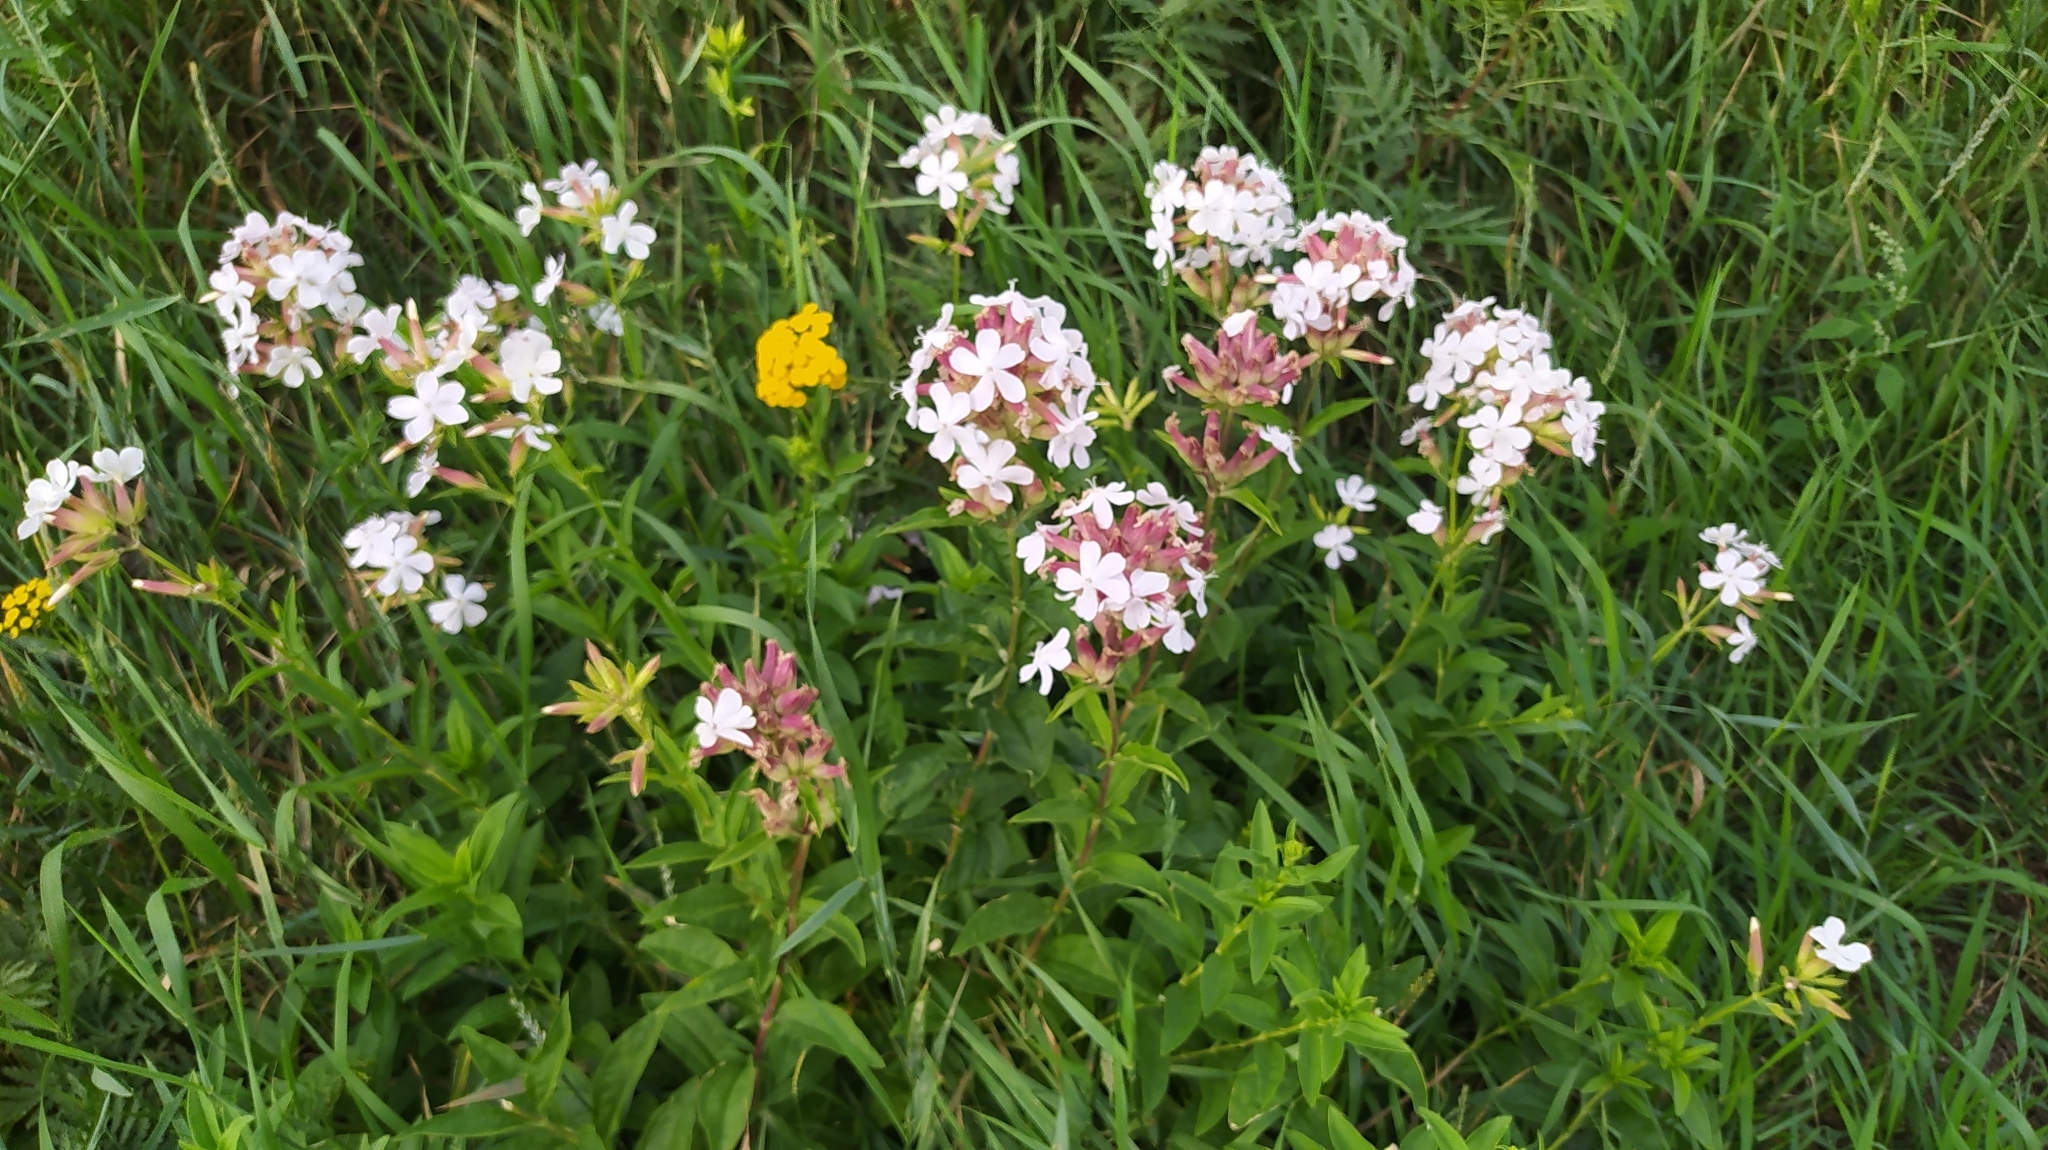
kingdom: Plantae
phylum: Tracheophyta
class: Magnoliopsida
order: Caryophyllales
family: Caryophyllaceae
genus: Saponaria
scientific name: Saponaria officinalis
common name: Soapwort
